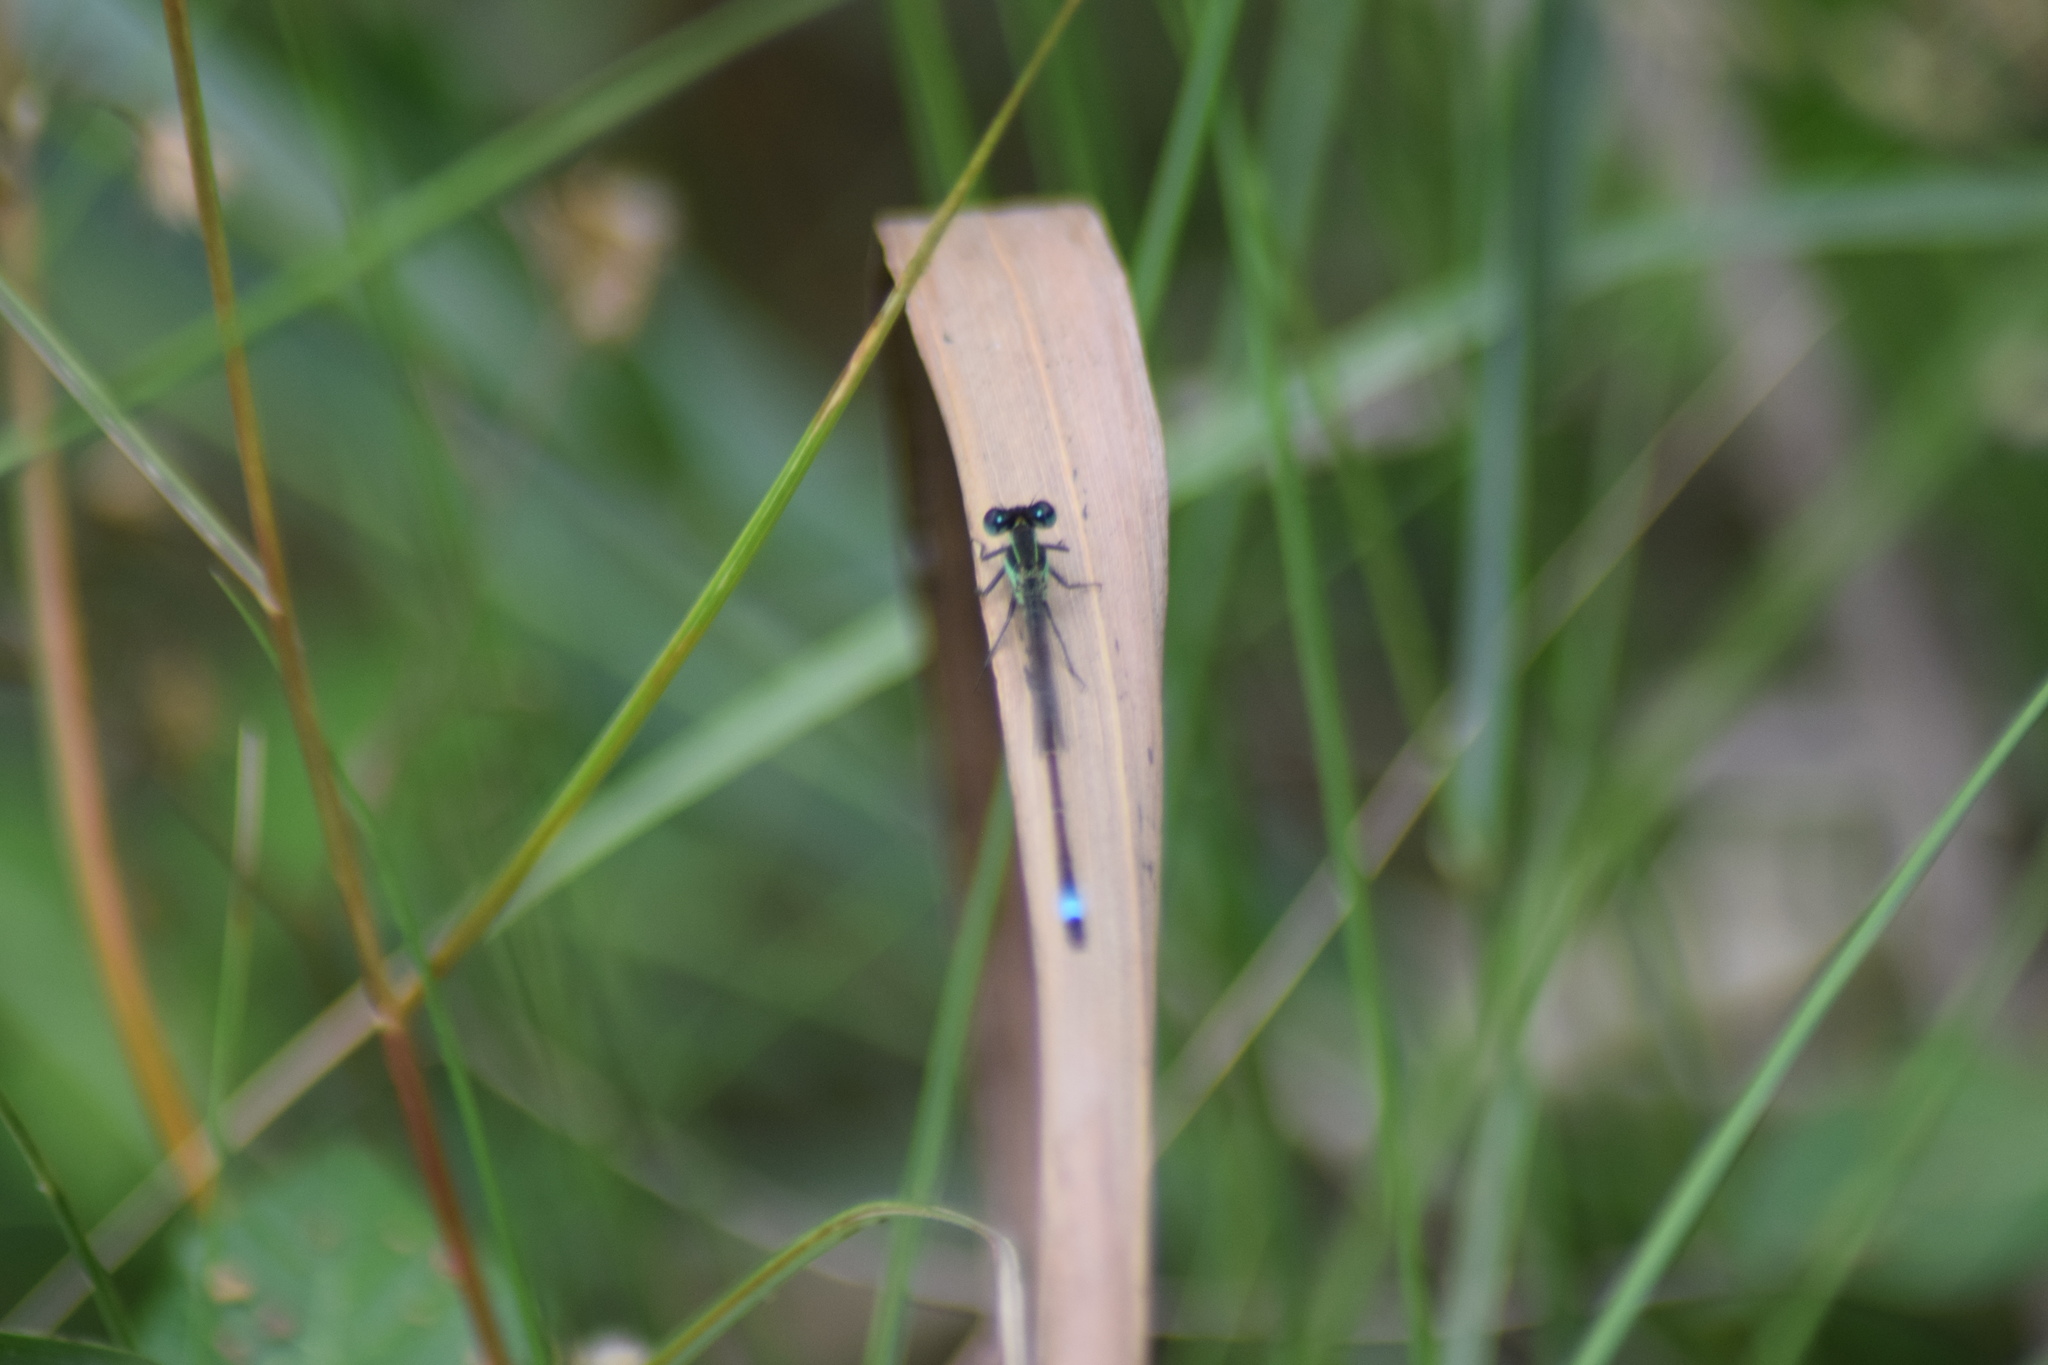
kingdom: Animalia
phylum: Arthropoda
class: Insecta
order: Odonata
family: Coenagrionidae
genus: Ischnura
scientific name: Ischnura ramburii
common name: Rambur's forktail
